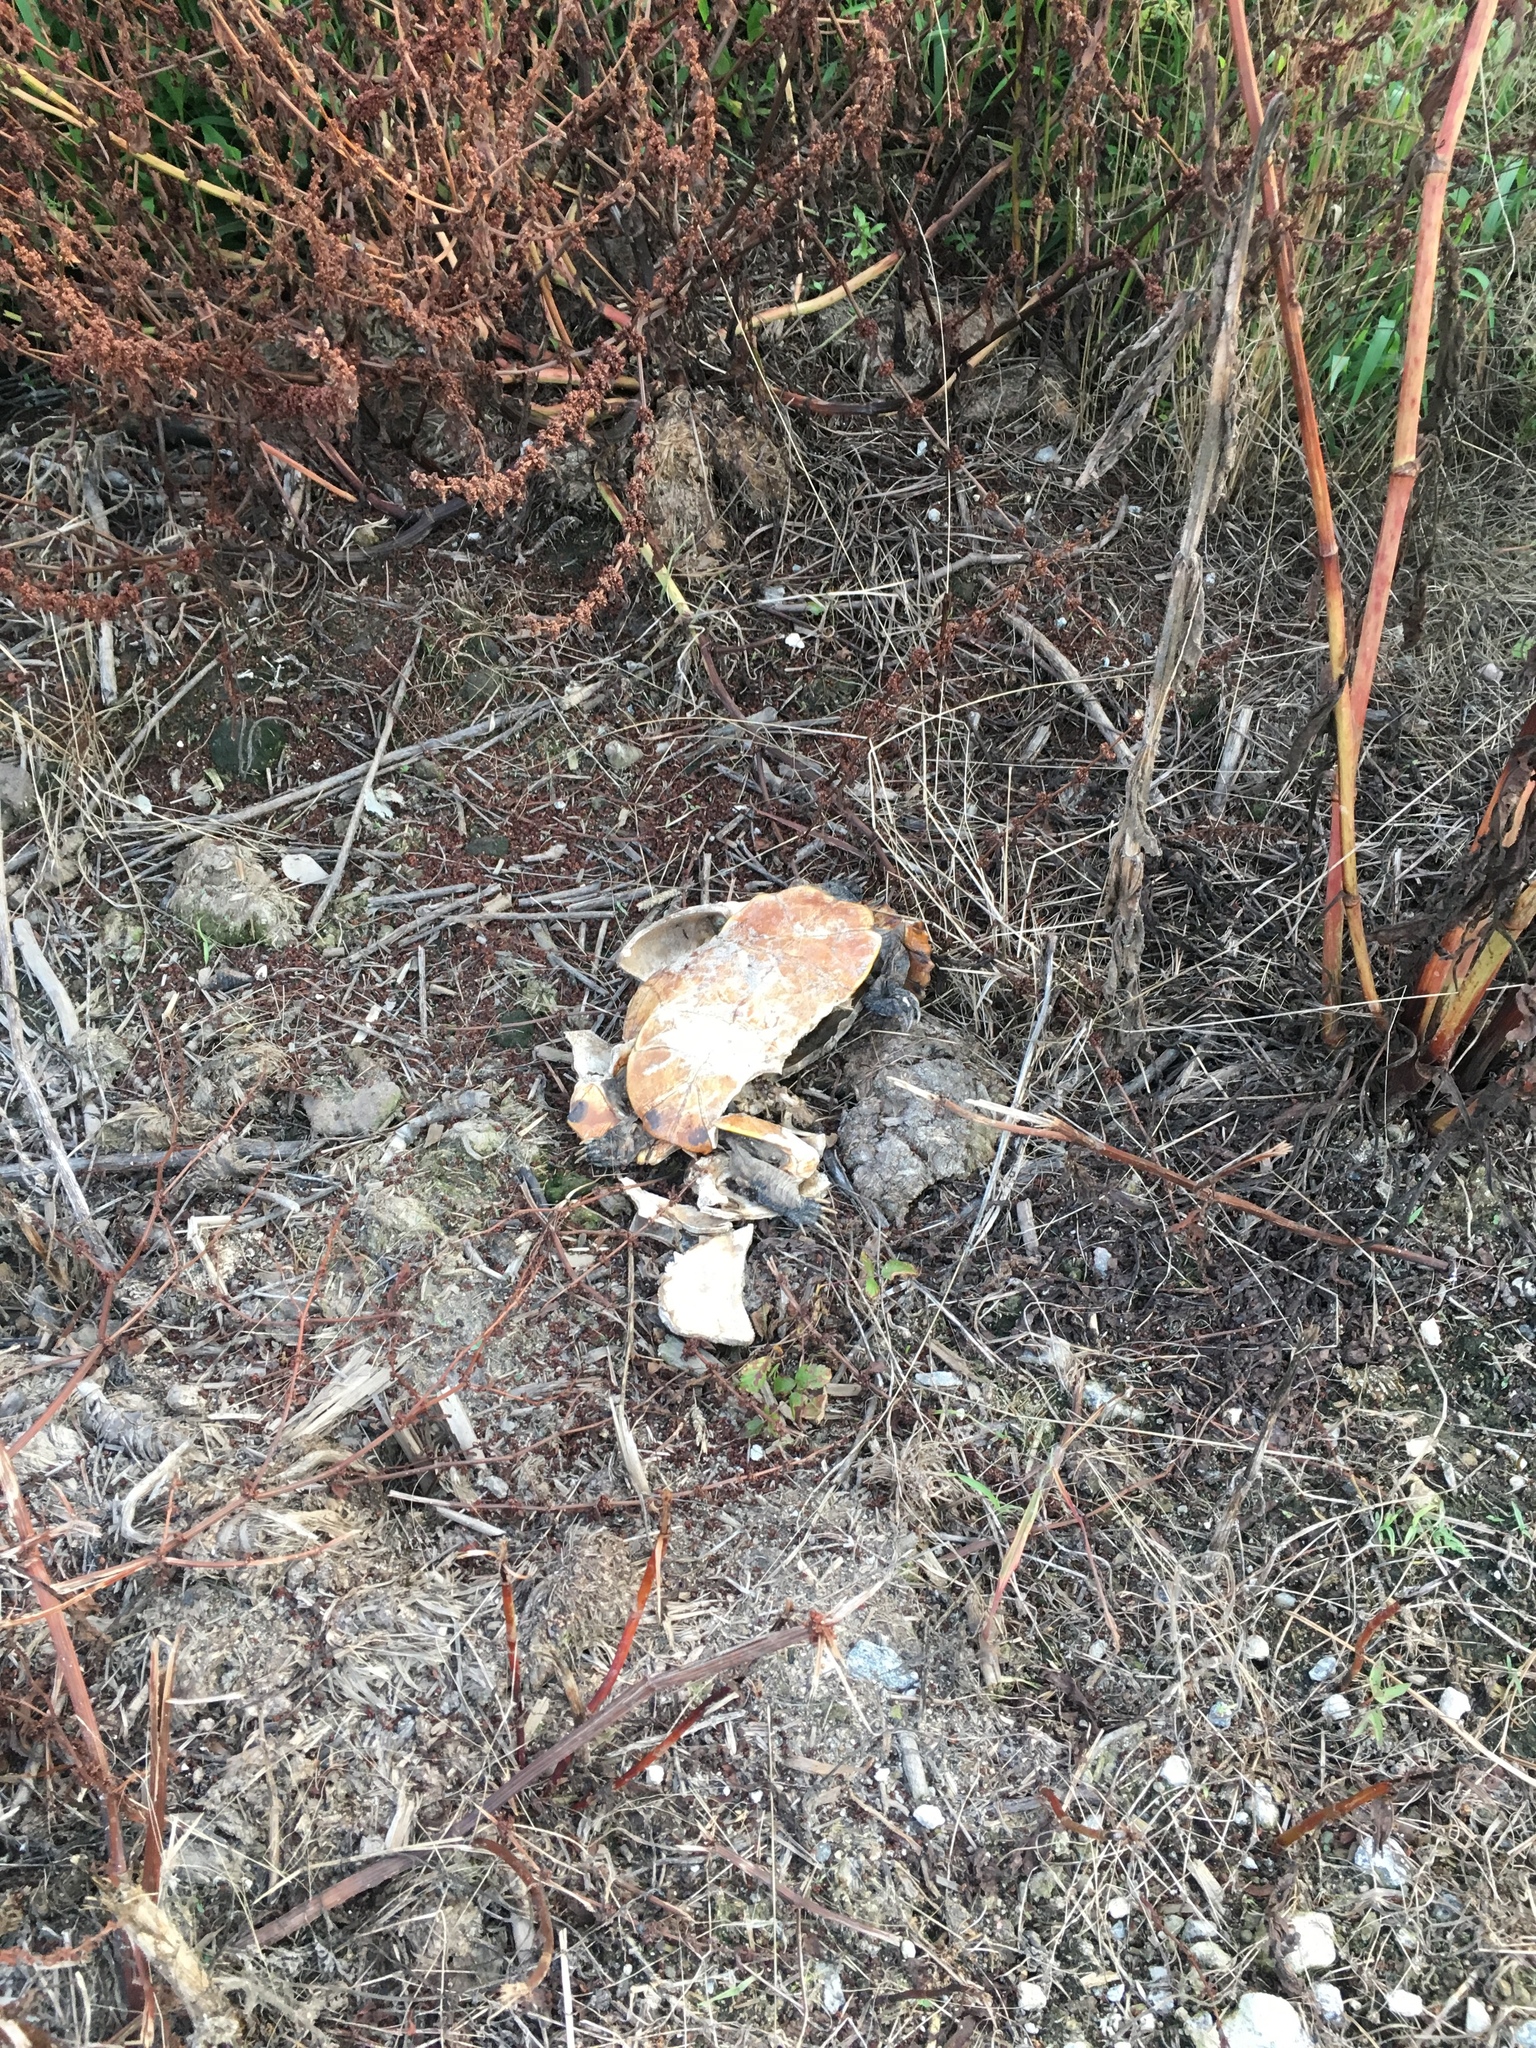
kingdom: Animalia
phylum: Chordata
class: Testudines
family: Emydidae
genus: Trachemys
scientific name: Trachemys scripta
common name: Slider
